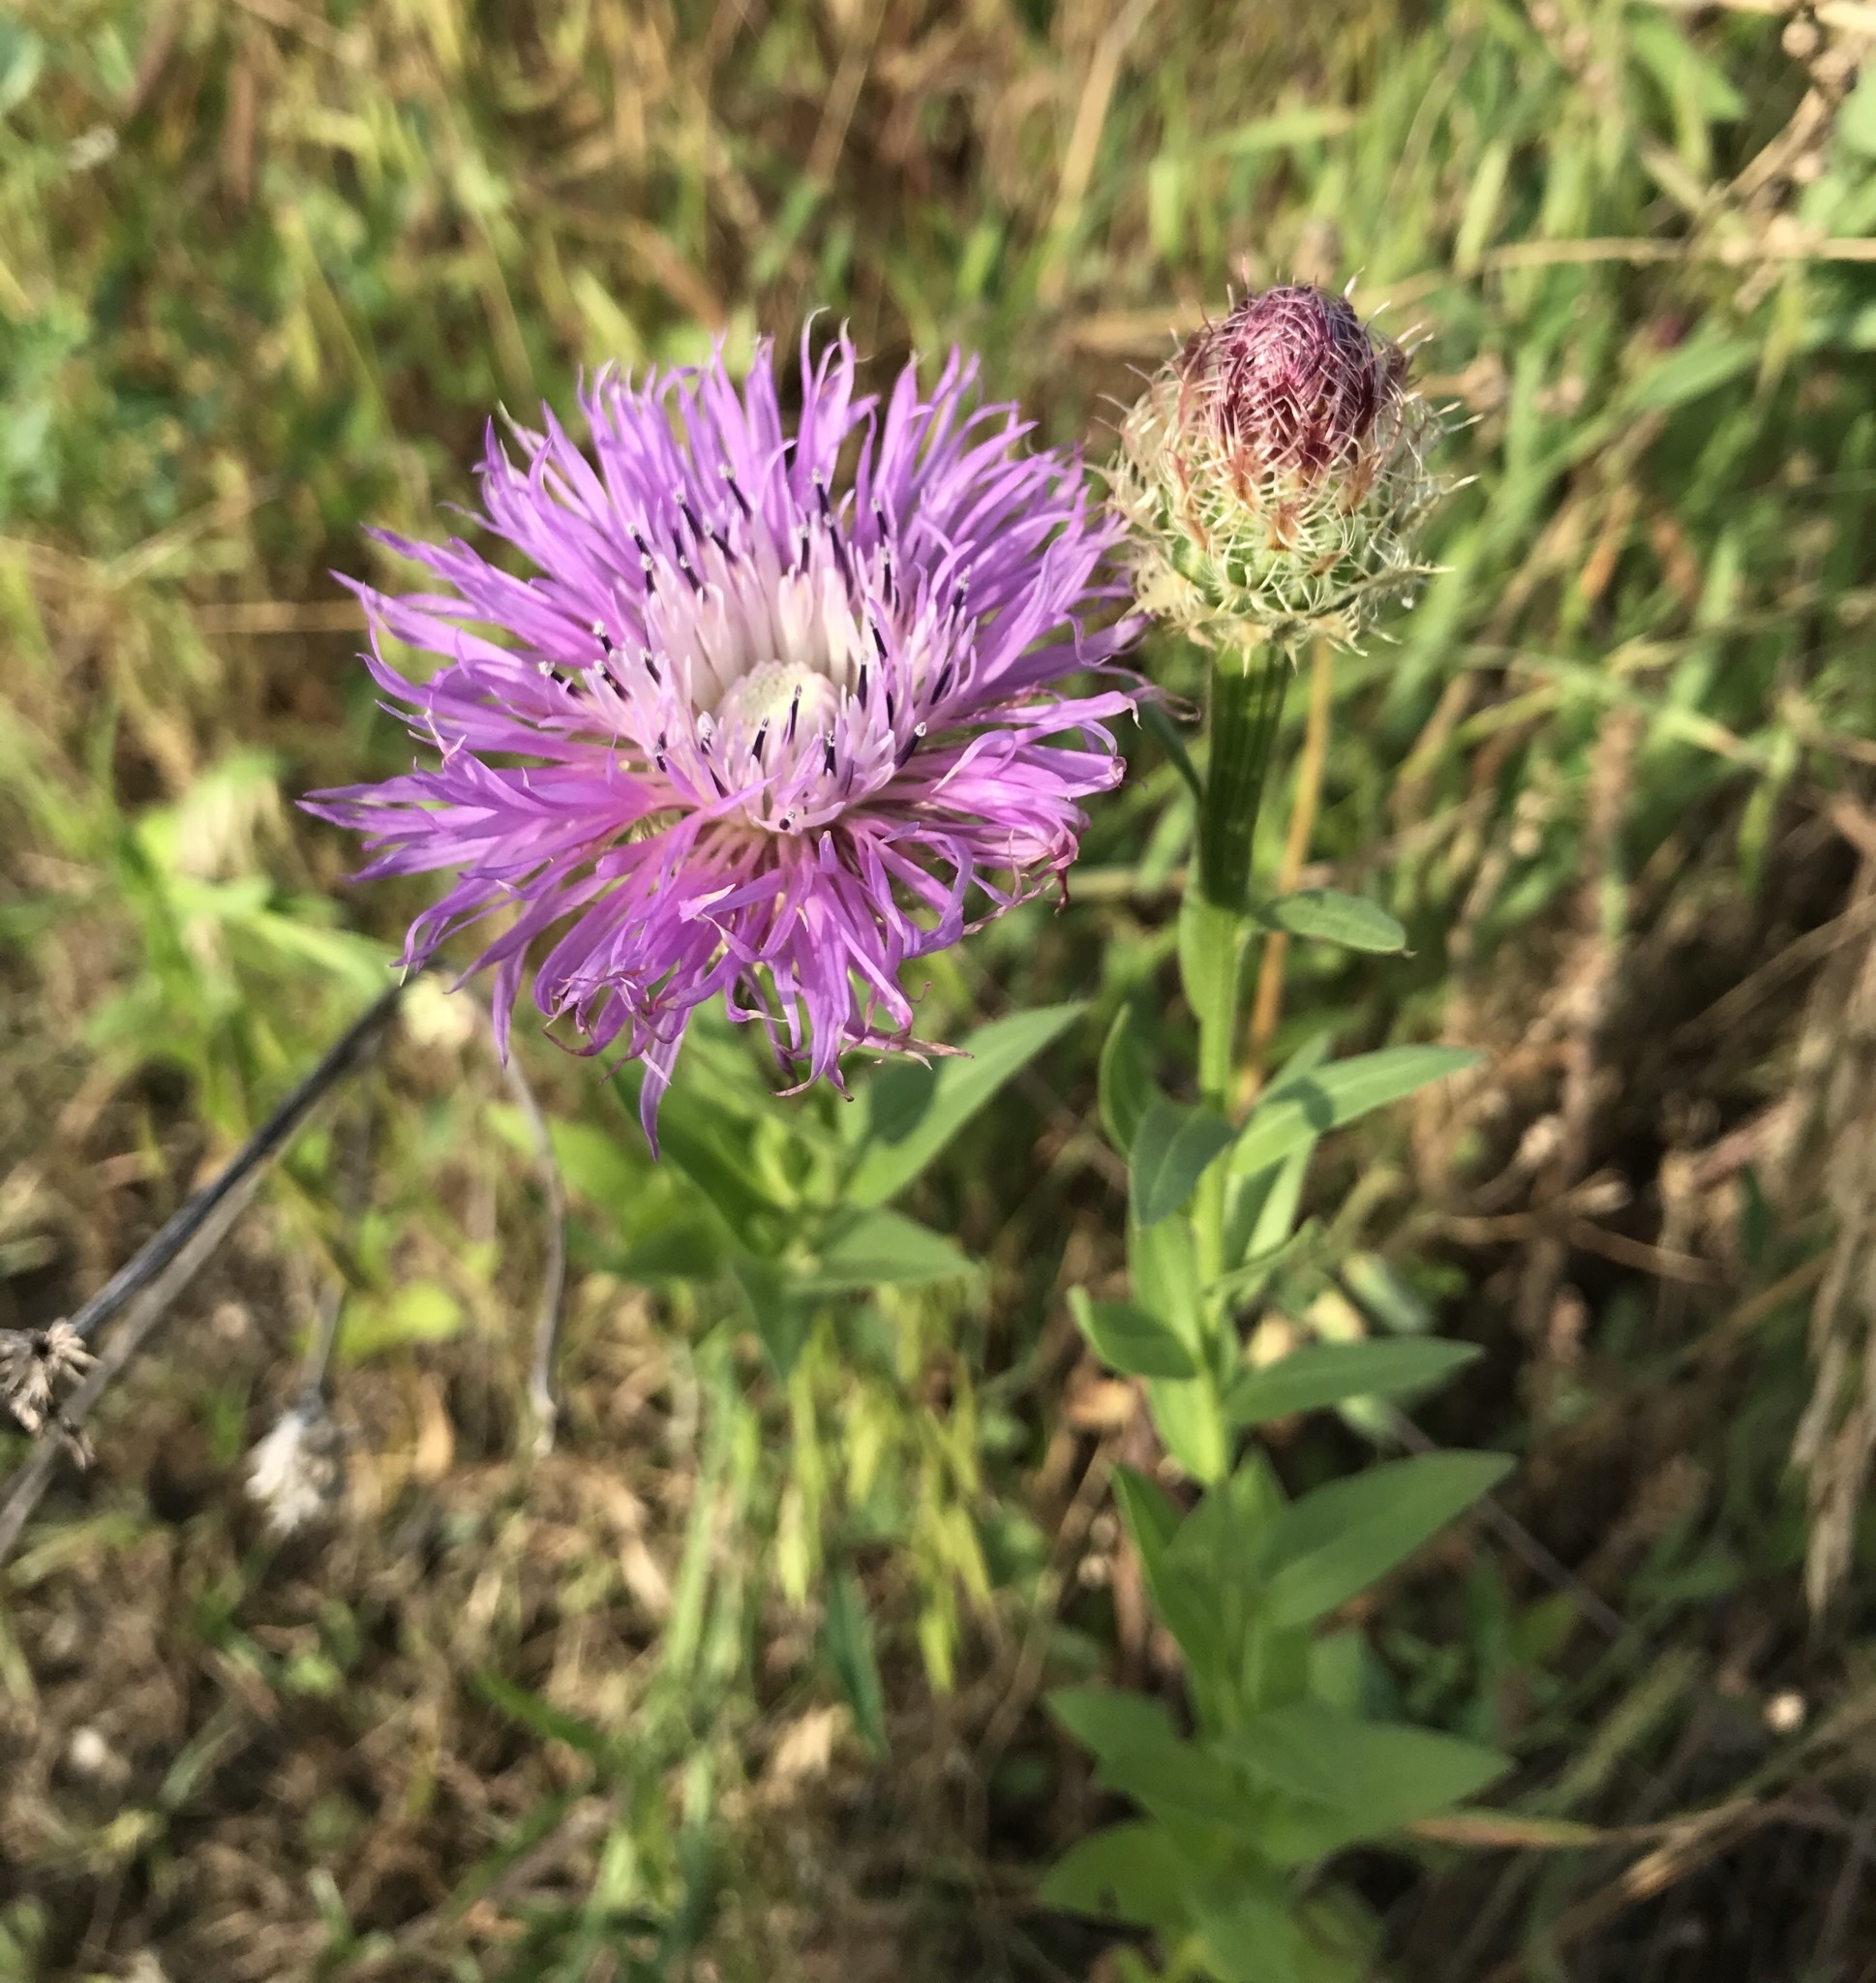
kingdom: Plantae
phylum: Tracheophyta
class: Magnoliopsida
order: Asterales
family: Asteraceae
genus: Plectocephalus
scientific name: Plectocephalus americanus
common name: American basket-flower
